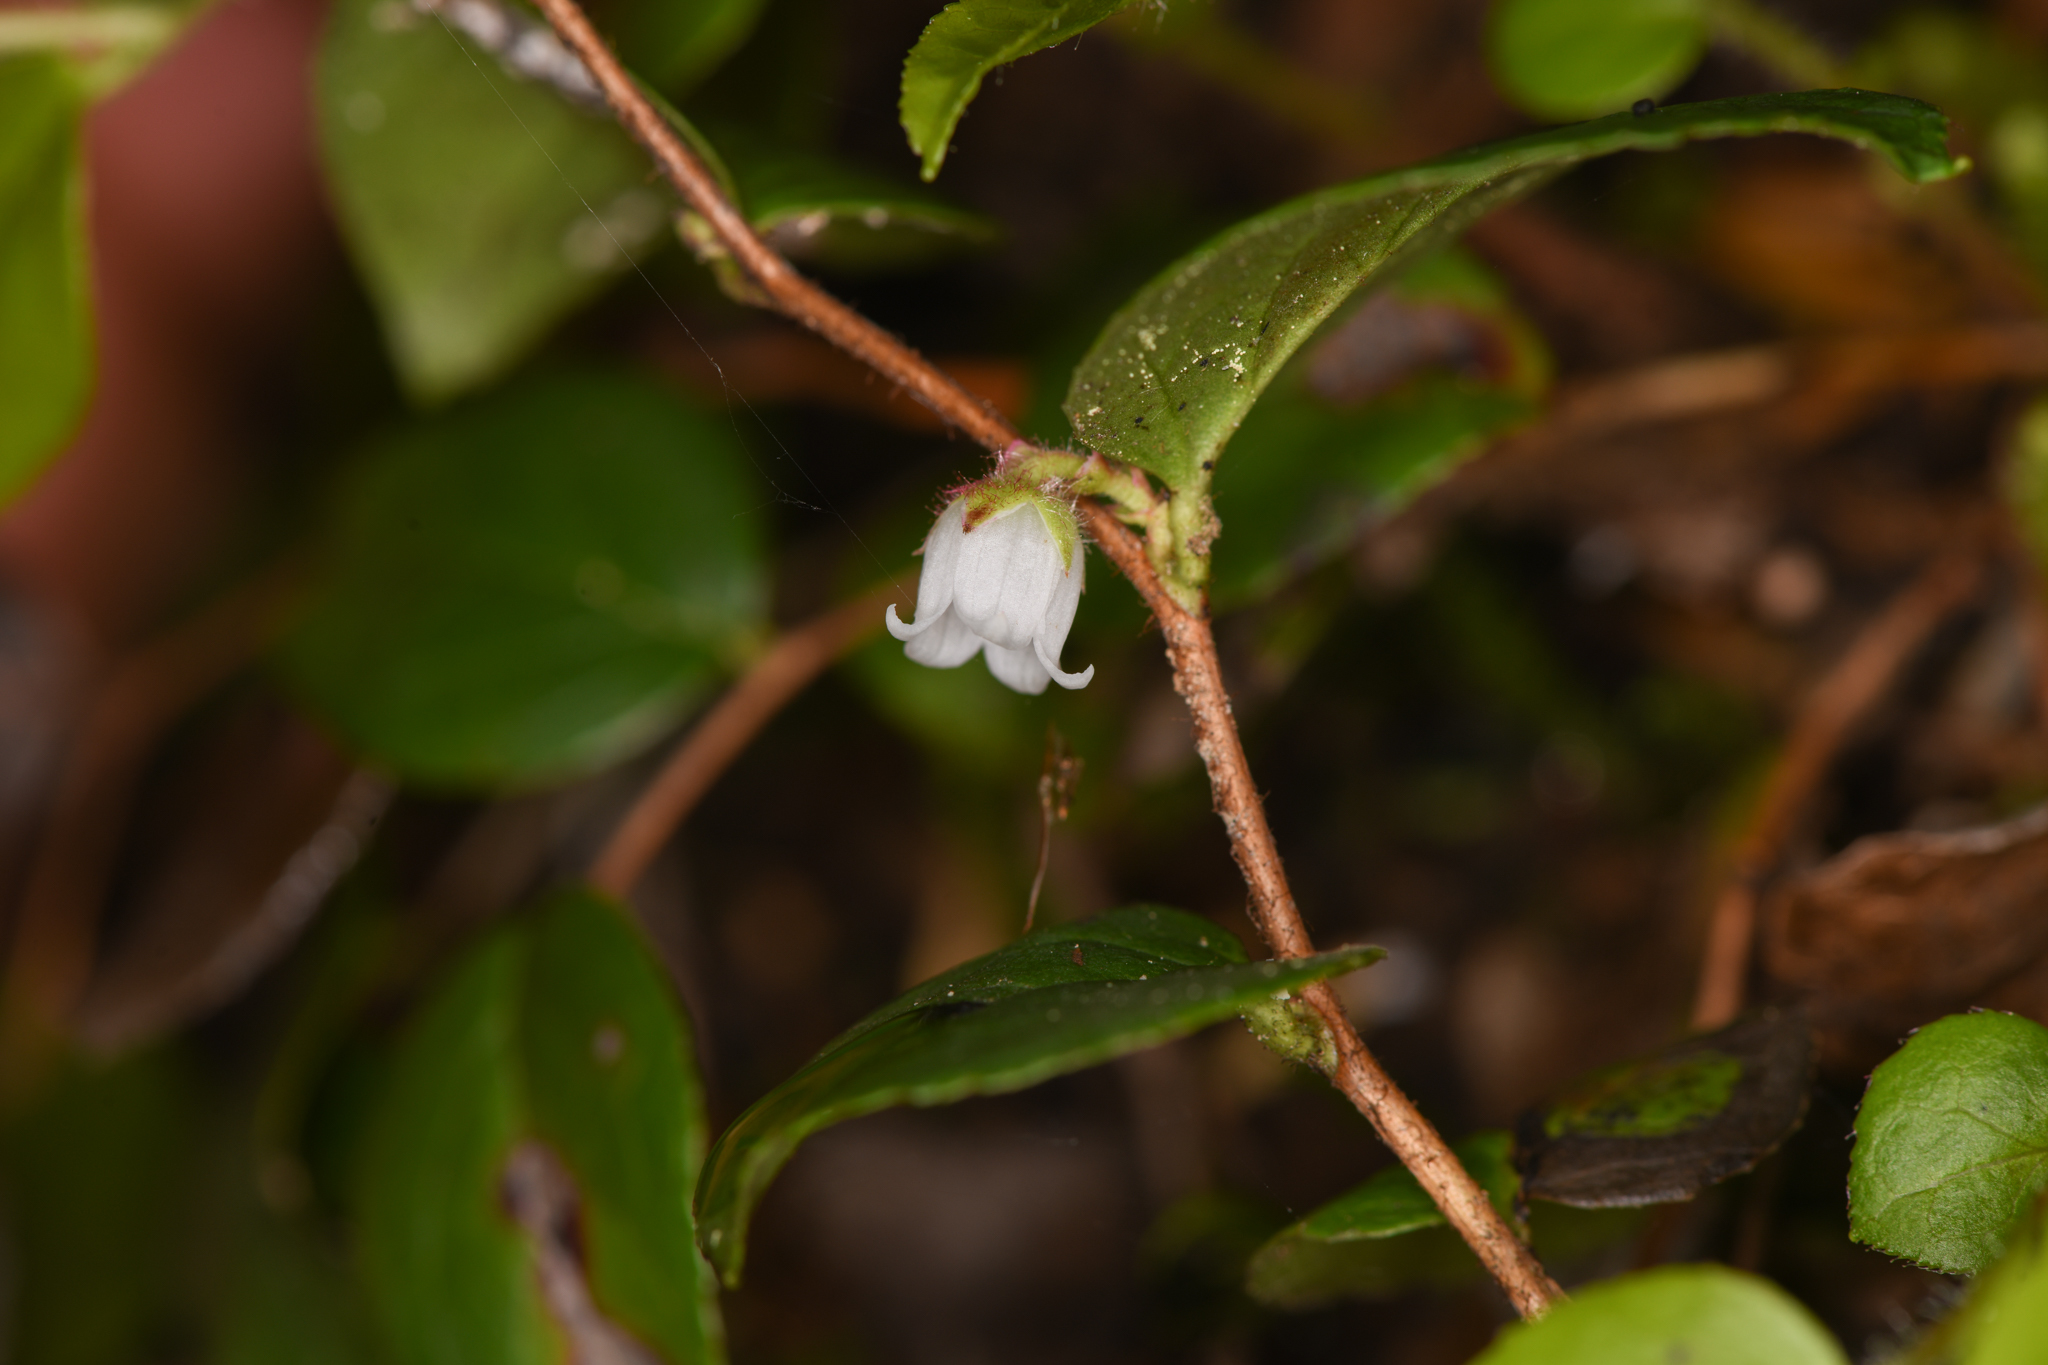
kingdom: Plantae
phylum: Tracheophyta
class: Magnoliopsida
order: Ericales
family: Ericaceae
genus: Gaultheria
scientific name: Gaultheria ovatifolia
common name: Oregon wintergreen
